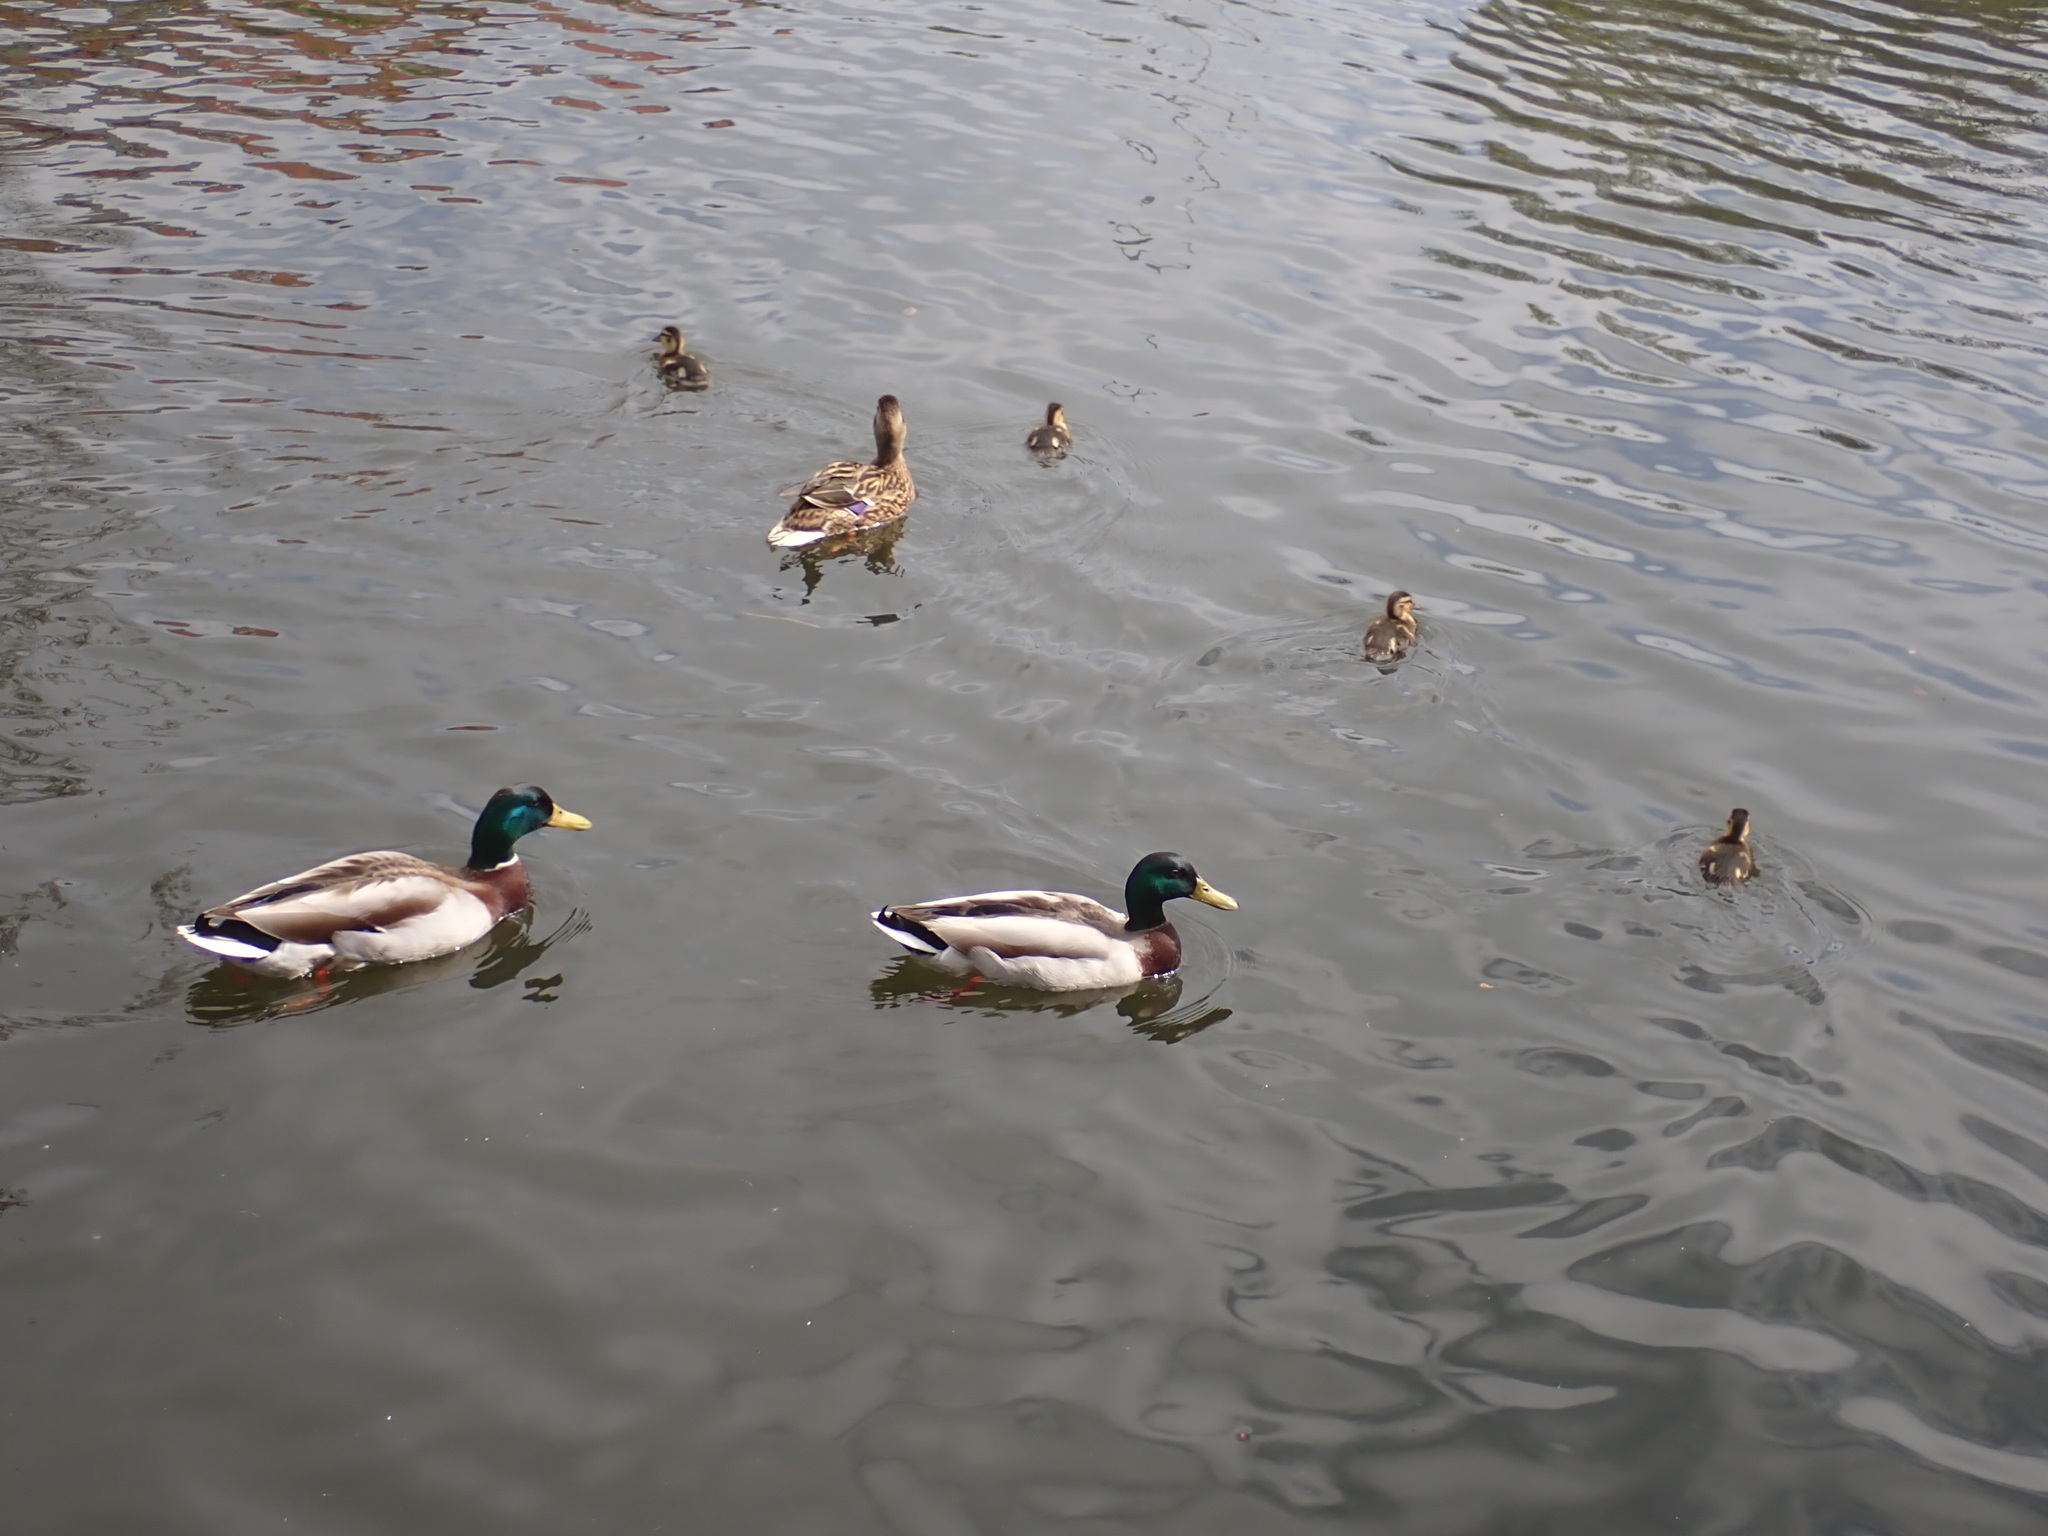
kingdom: Animalia
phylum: Chordata
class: Aves
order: Anseriformes
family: Anatidae
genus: Anas
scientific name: Anas platyrhynchos
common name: Mallard
